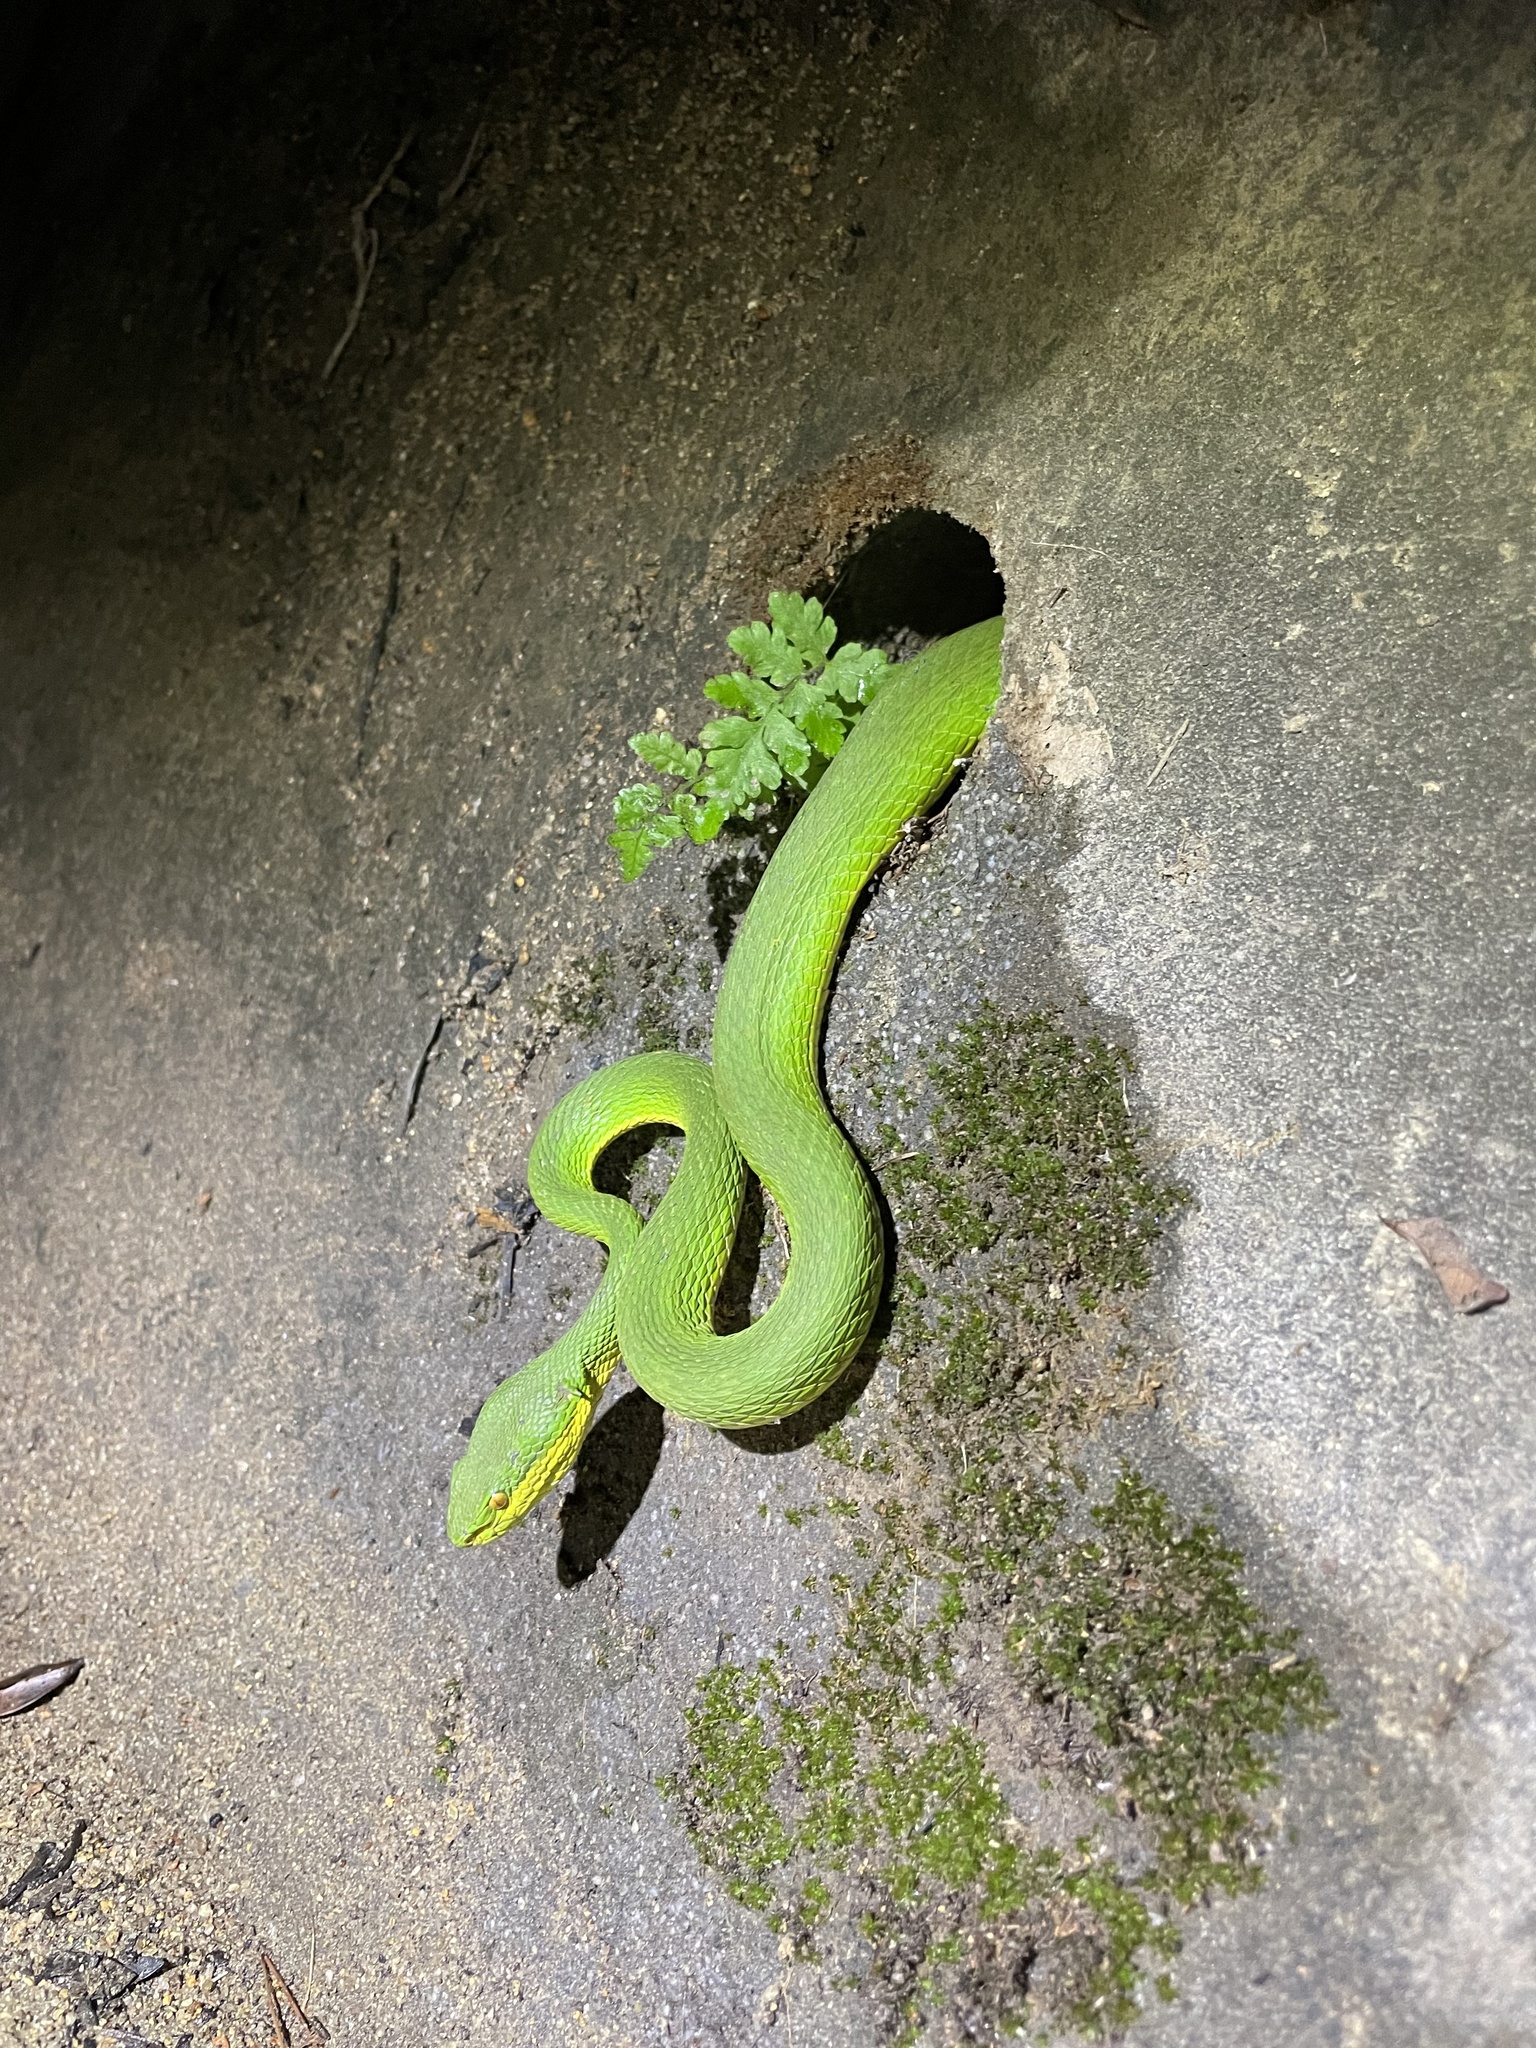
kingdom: Animalia
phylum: Chordata
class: Squamata
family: Viperidae
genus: Trimeresurus
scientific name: Trimeresurus albolabris
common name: White-lipped pitviper
